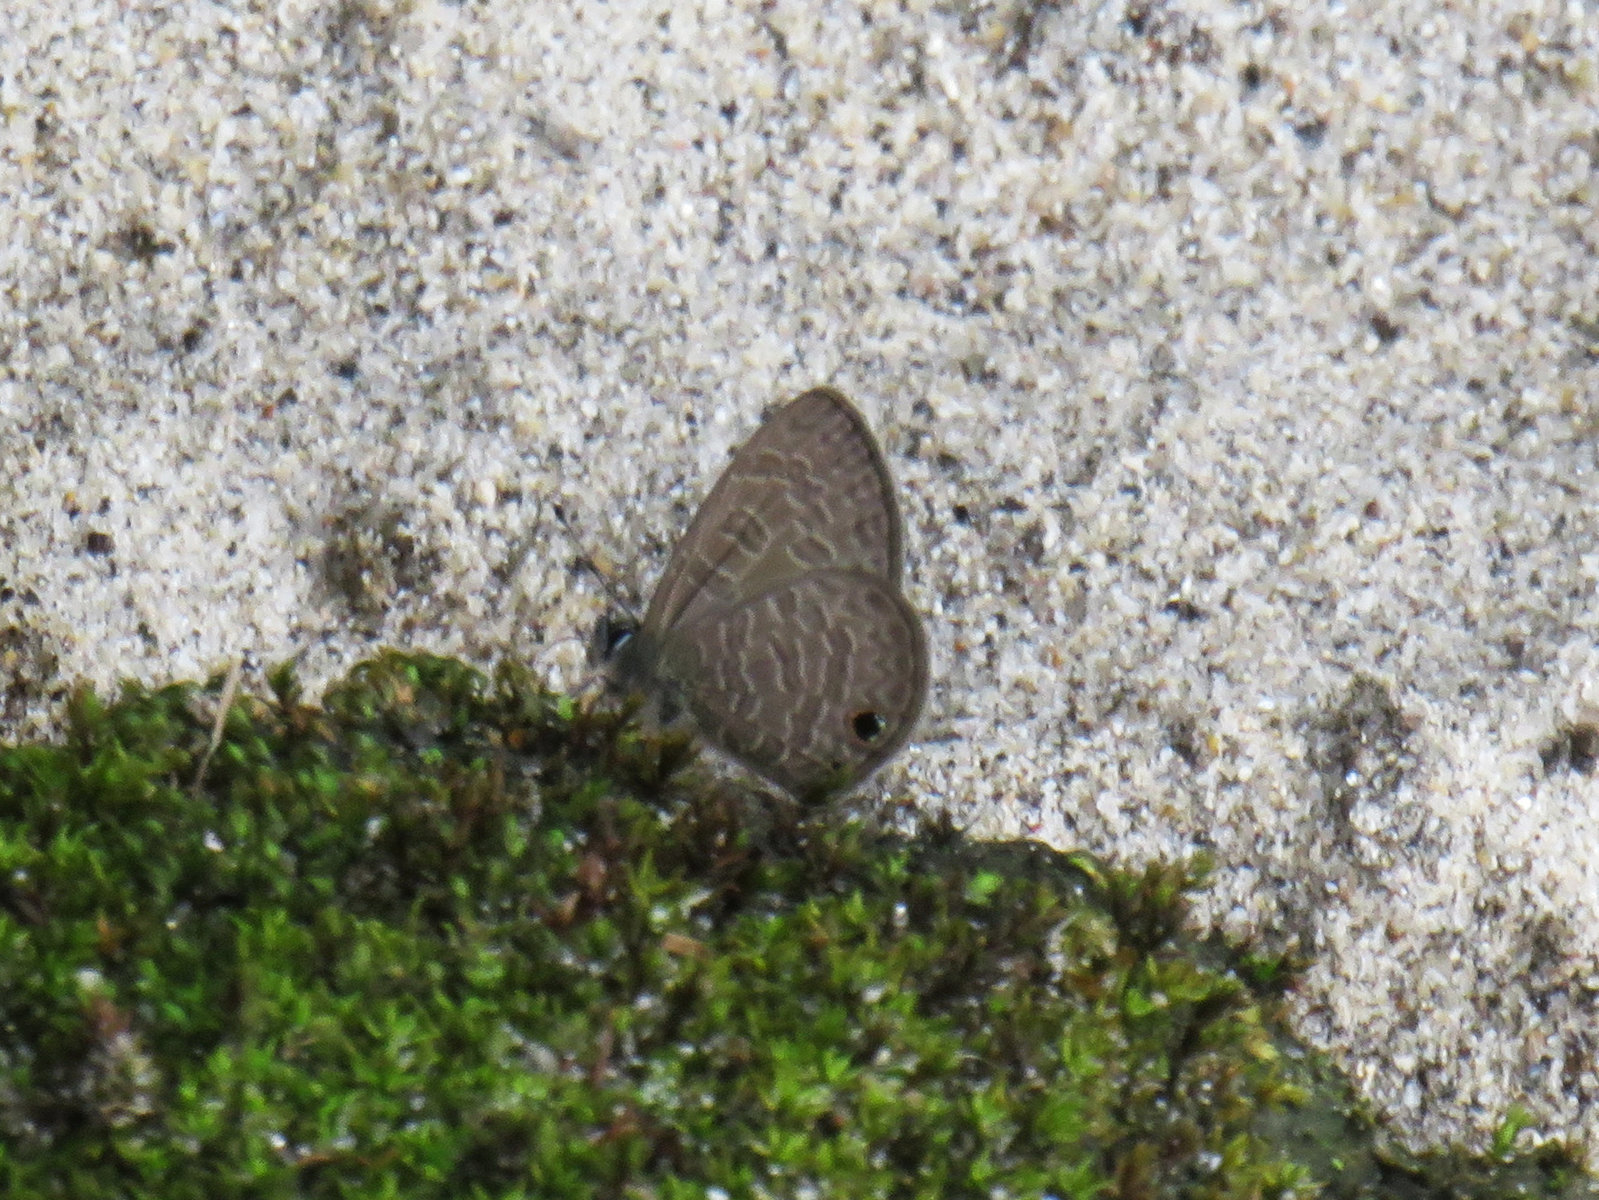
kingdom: Animalia
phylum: Arthropoda
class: Insecta
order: Lepidoptera
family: Lycaenidae
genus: Prosotas
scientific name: Prosotas dubiosa
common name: Tailless lineblue
